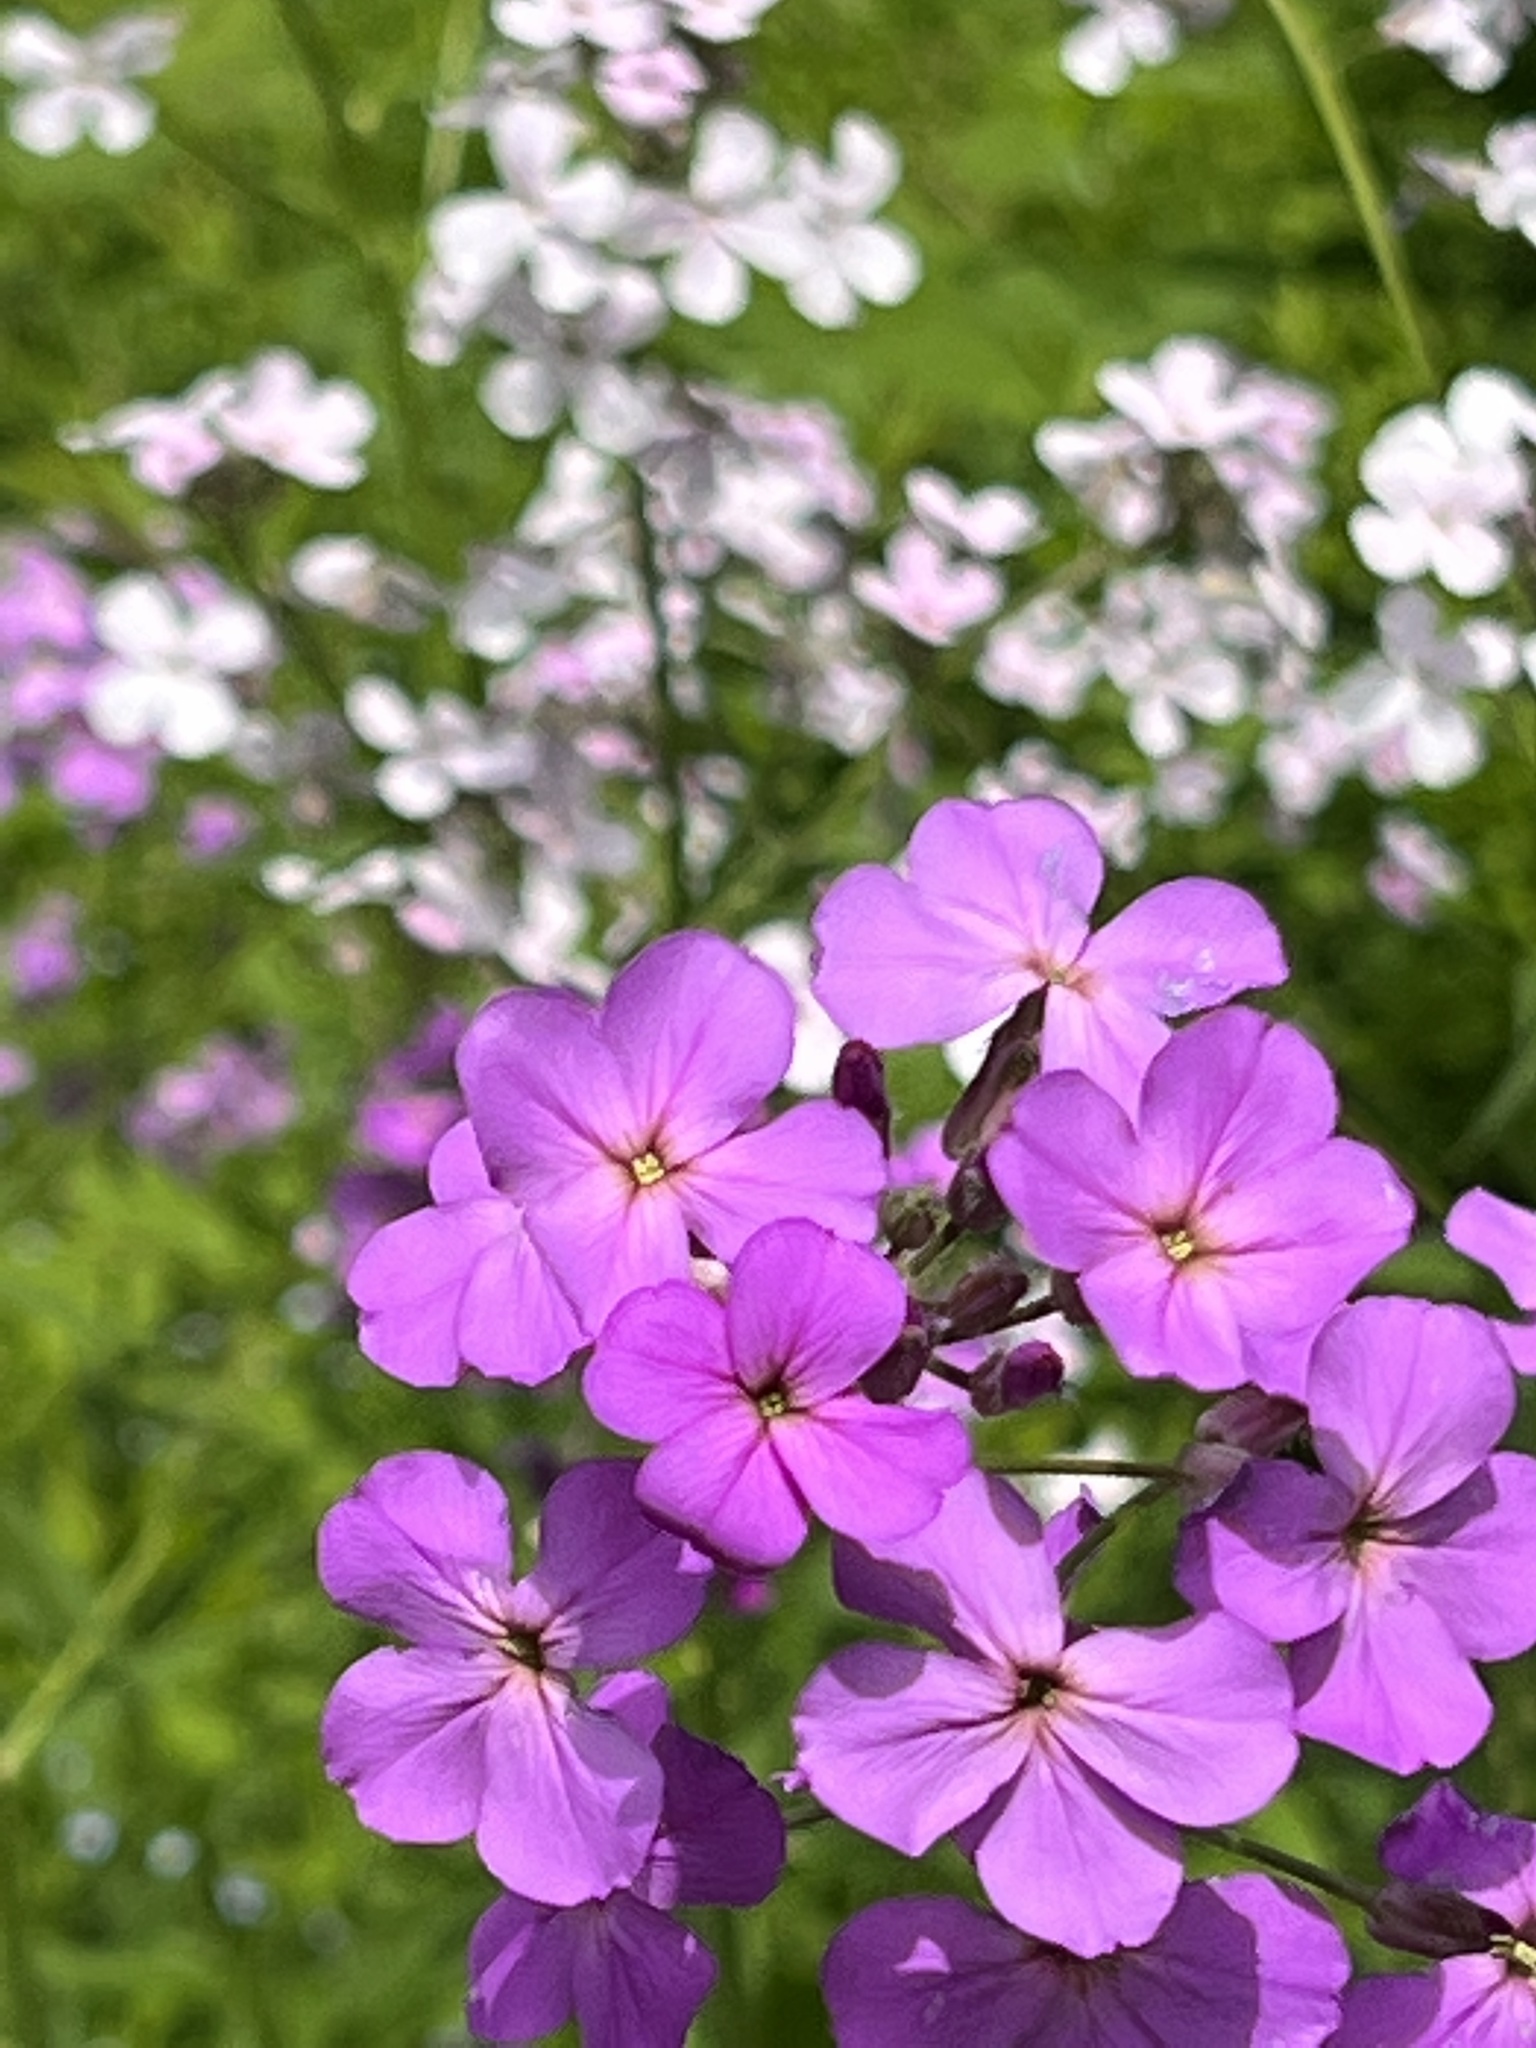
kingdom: Plantae
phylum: Tracheophyta
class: Magnoliopsida
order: Brassicales
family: Brassicaceae
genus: Hesperis
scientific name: Hesperis matronalis
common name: Dame's-violet
